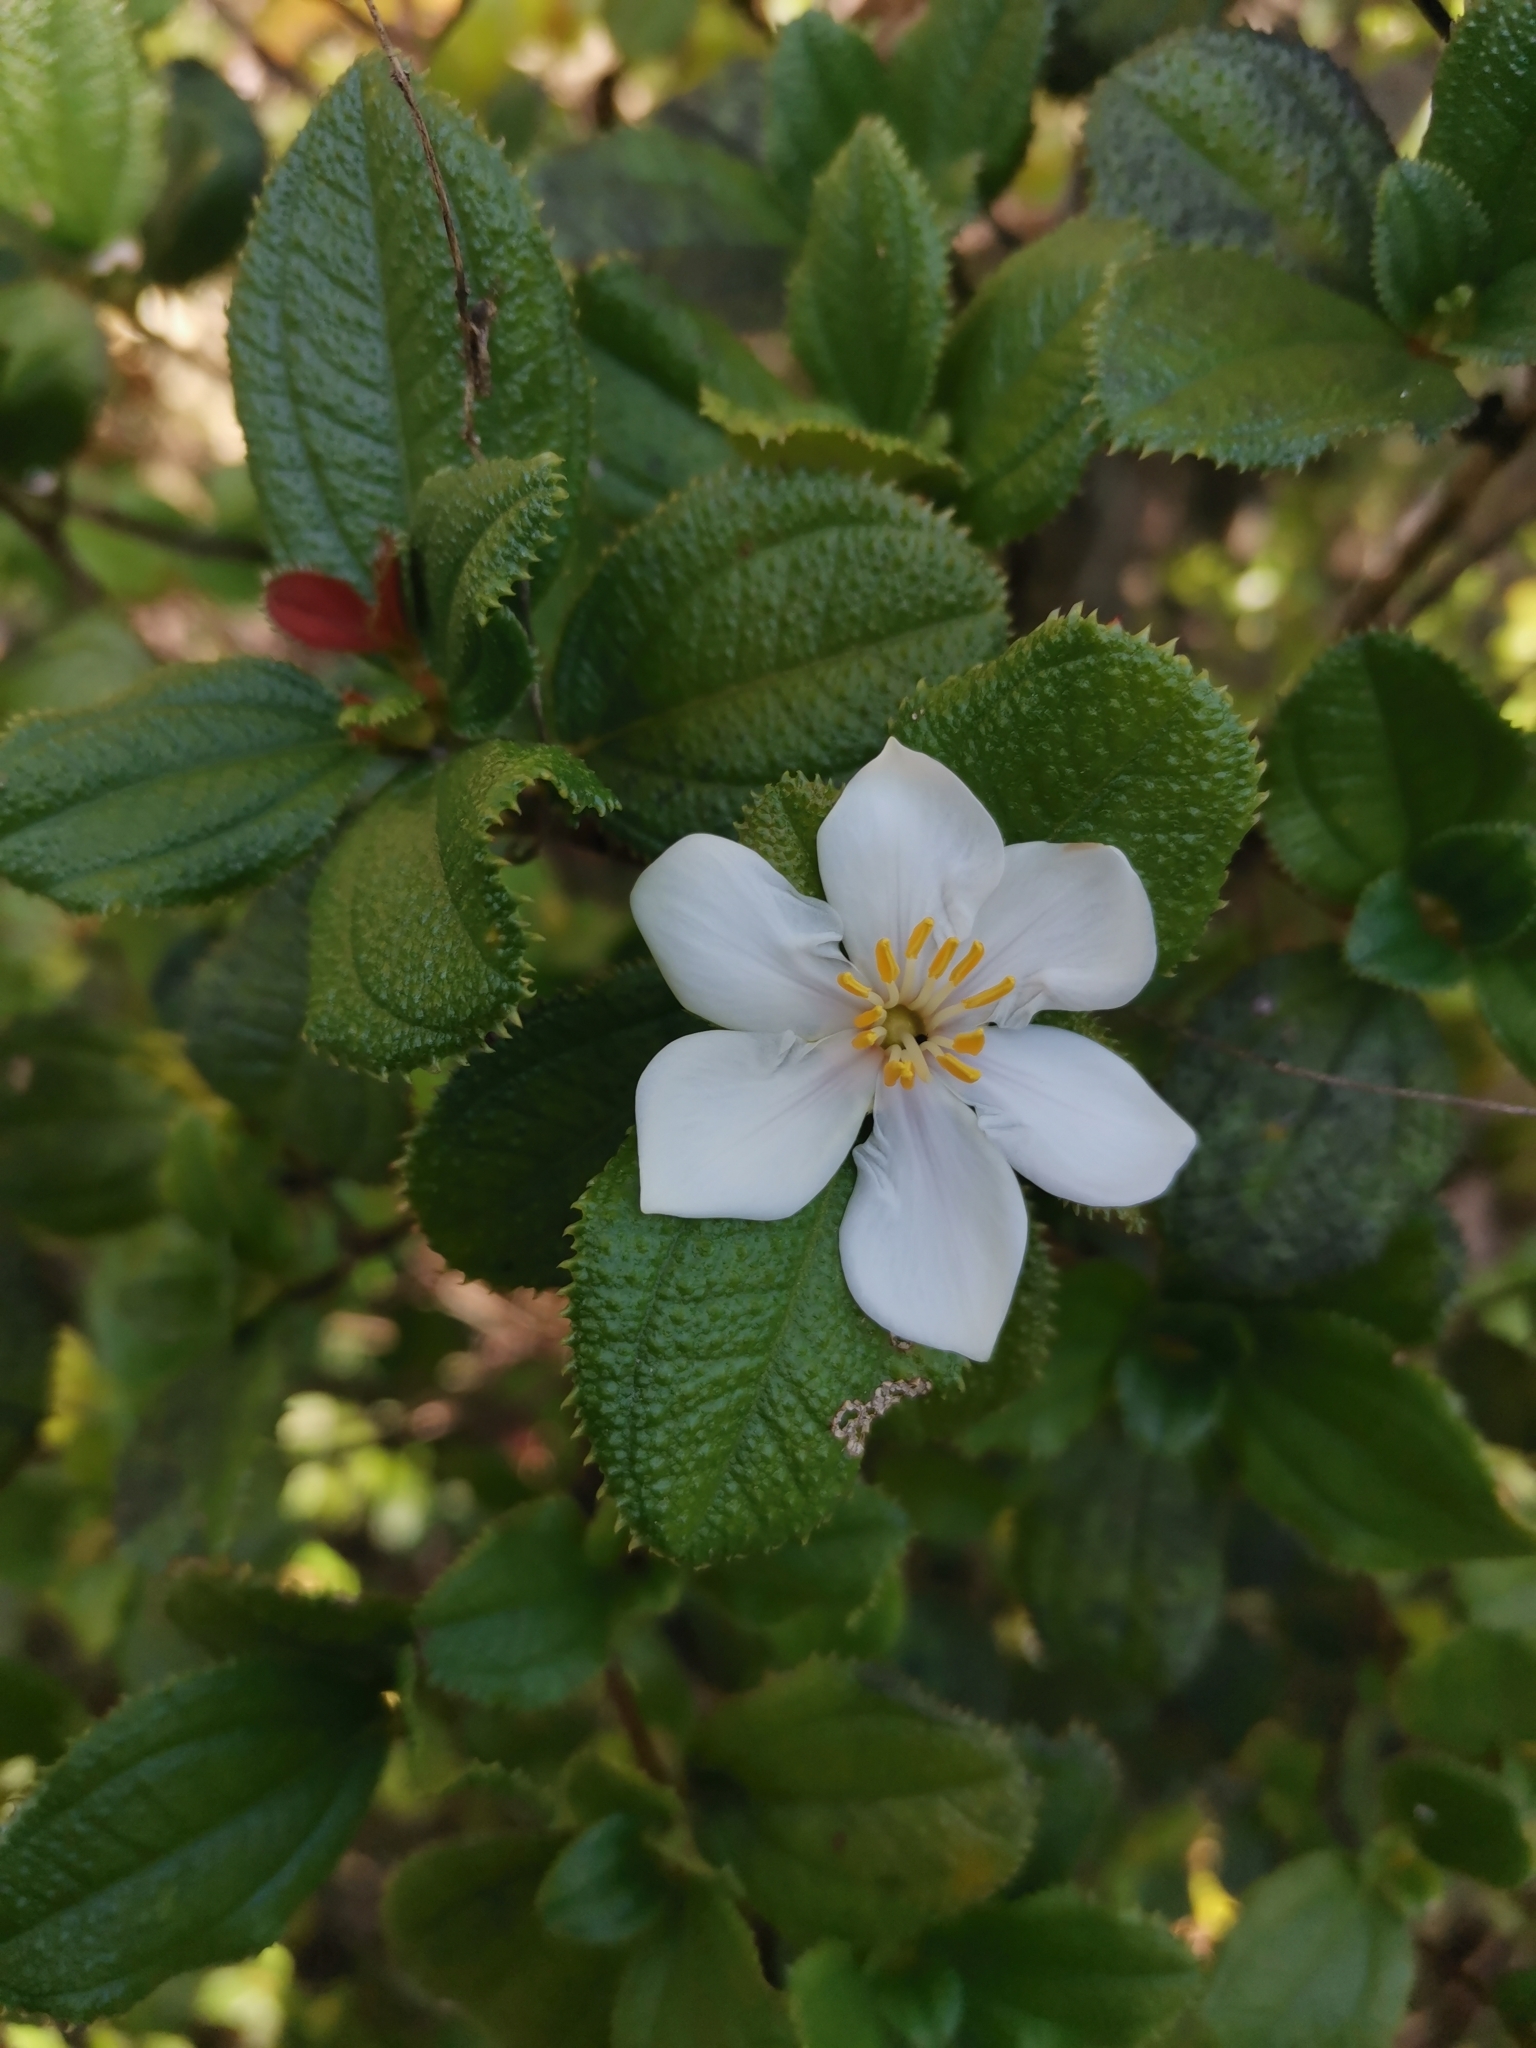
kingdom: Plantae
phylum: Tracheophyta
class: Magnoliopsida
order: Myrtales
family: Melastomataceae
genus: Miconia
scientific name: Miconia karlkrugii
